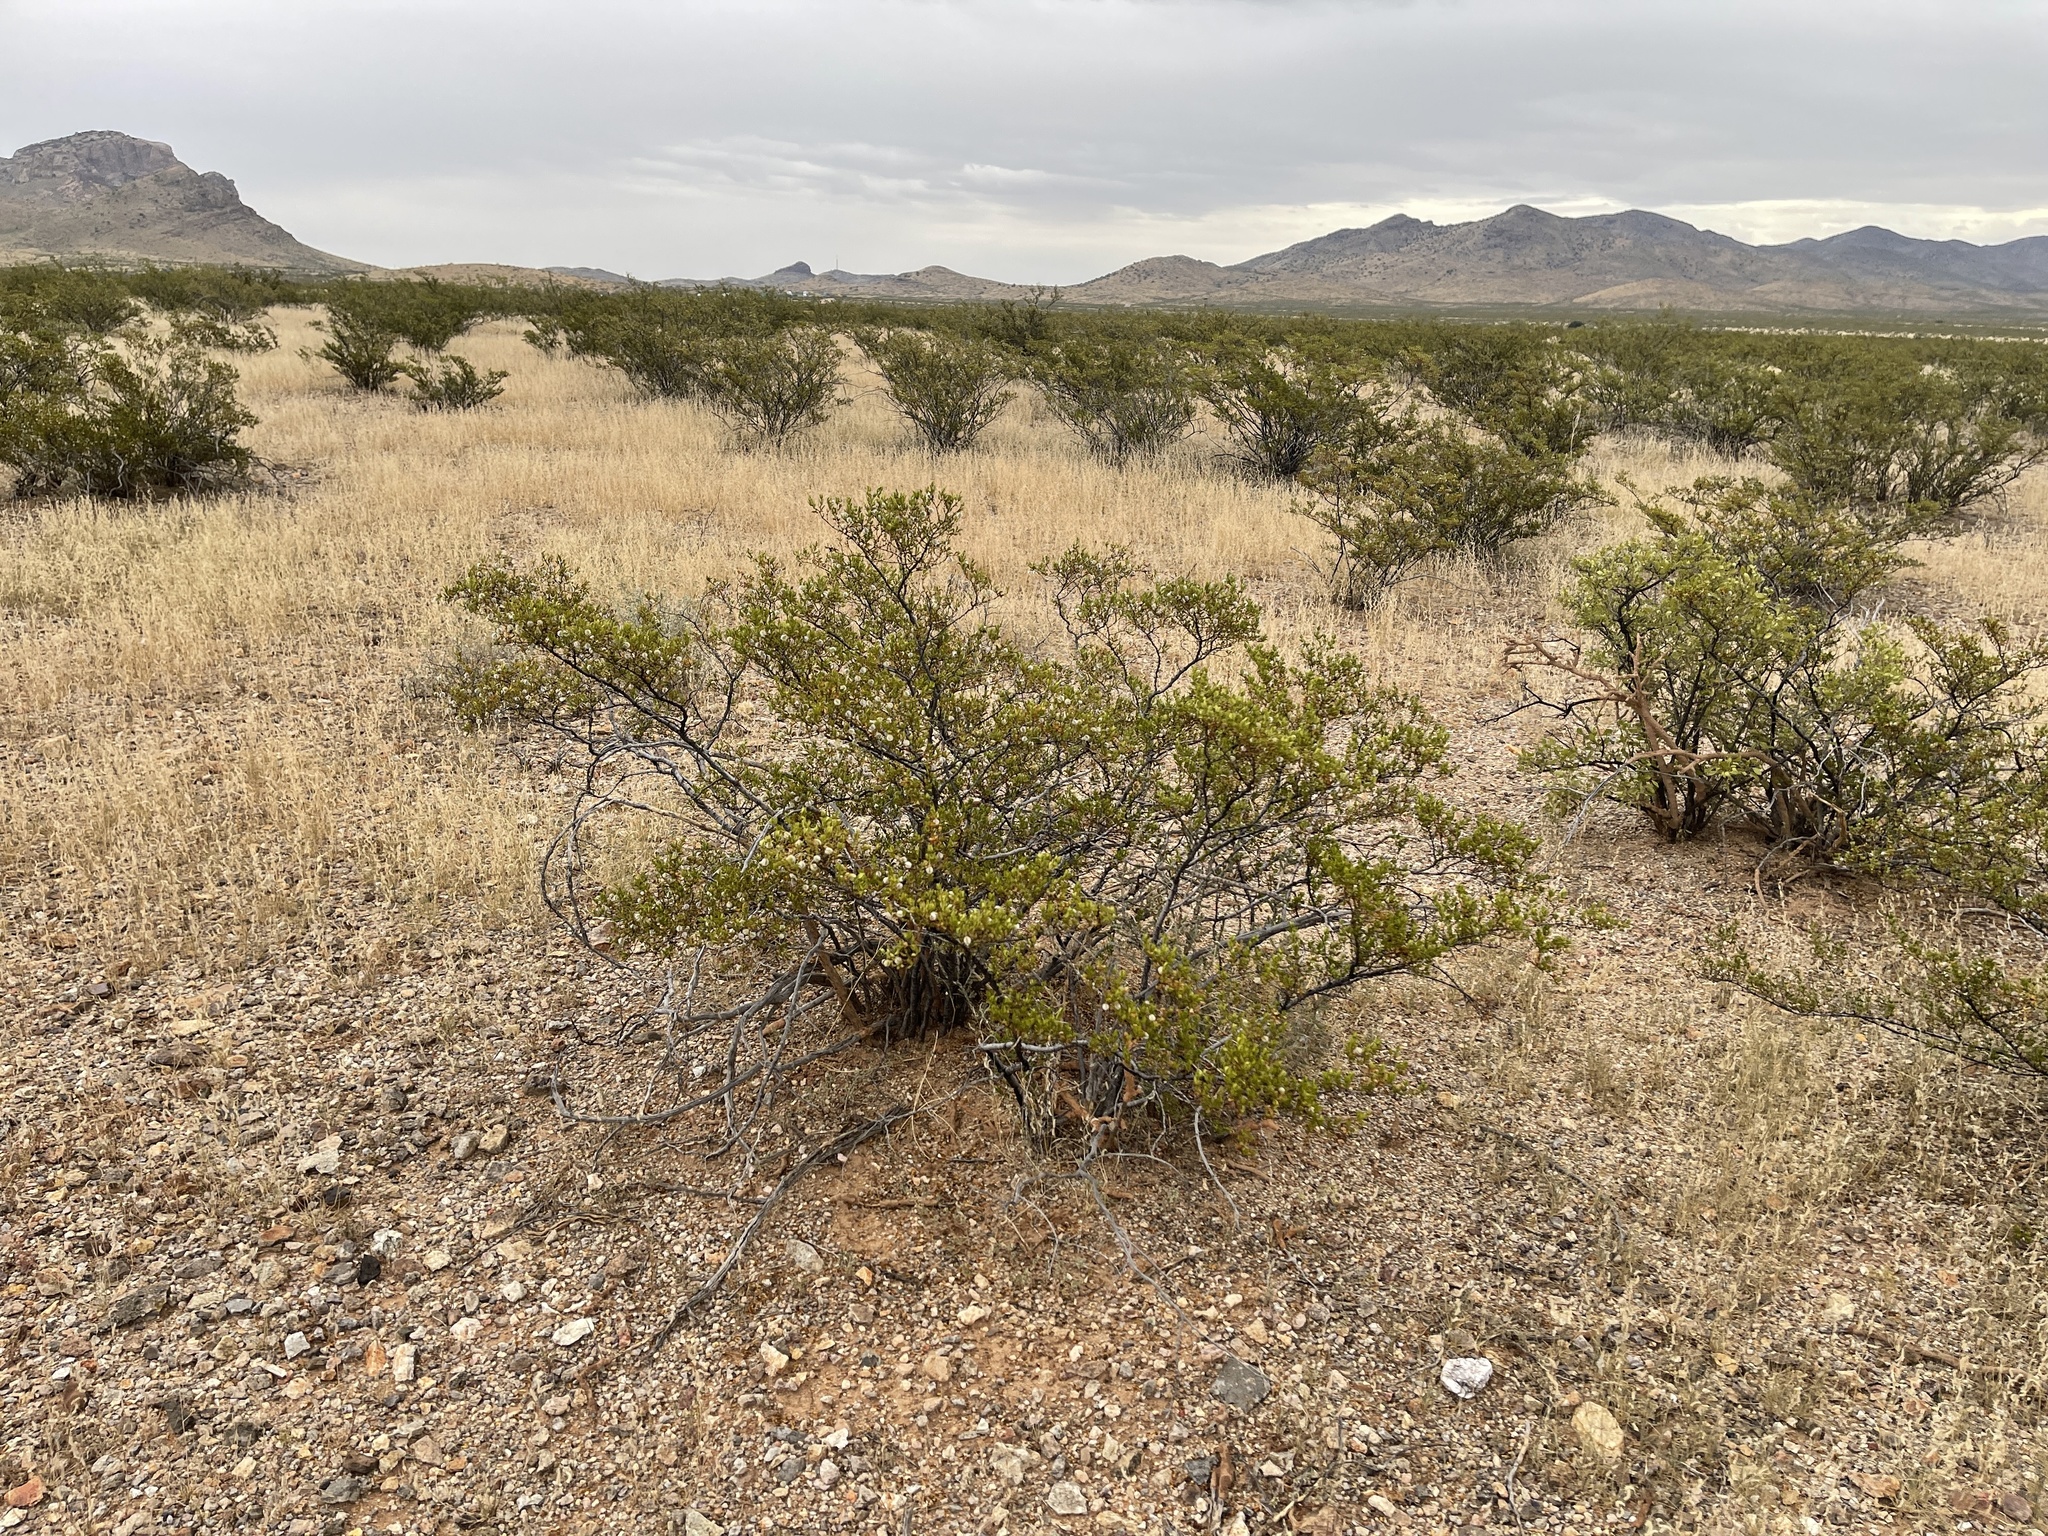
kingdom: Plantae
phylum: Tracheophyta
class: Magnoliopsida
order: Zygophyllales
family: Zygophyllaceae
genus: Larrea
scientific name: Larrea tridentata
